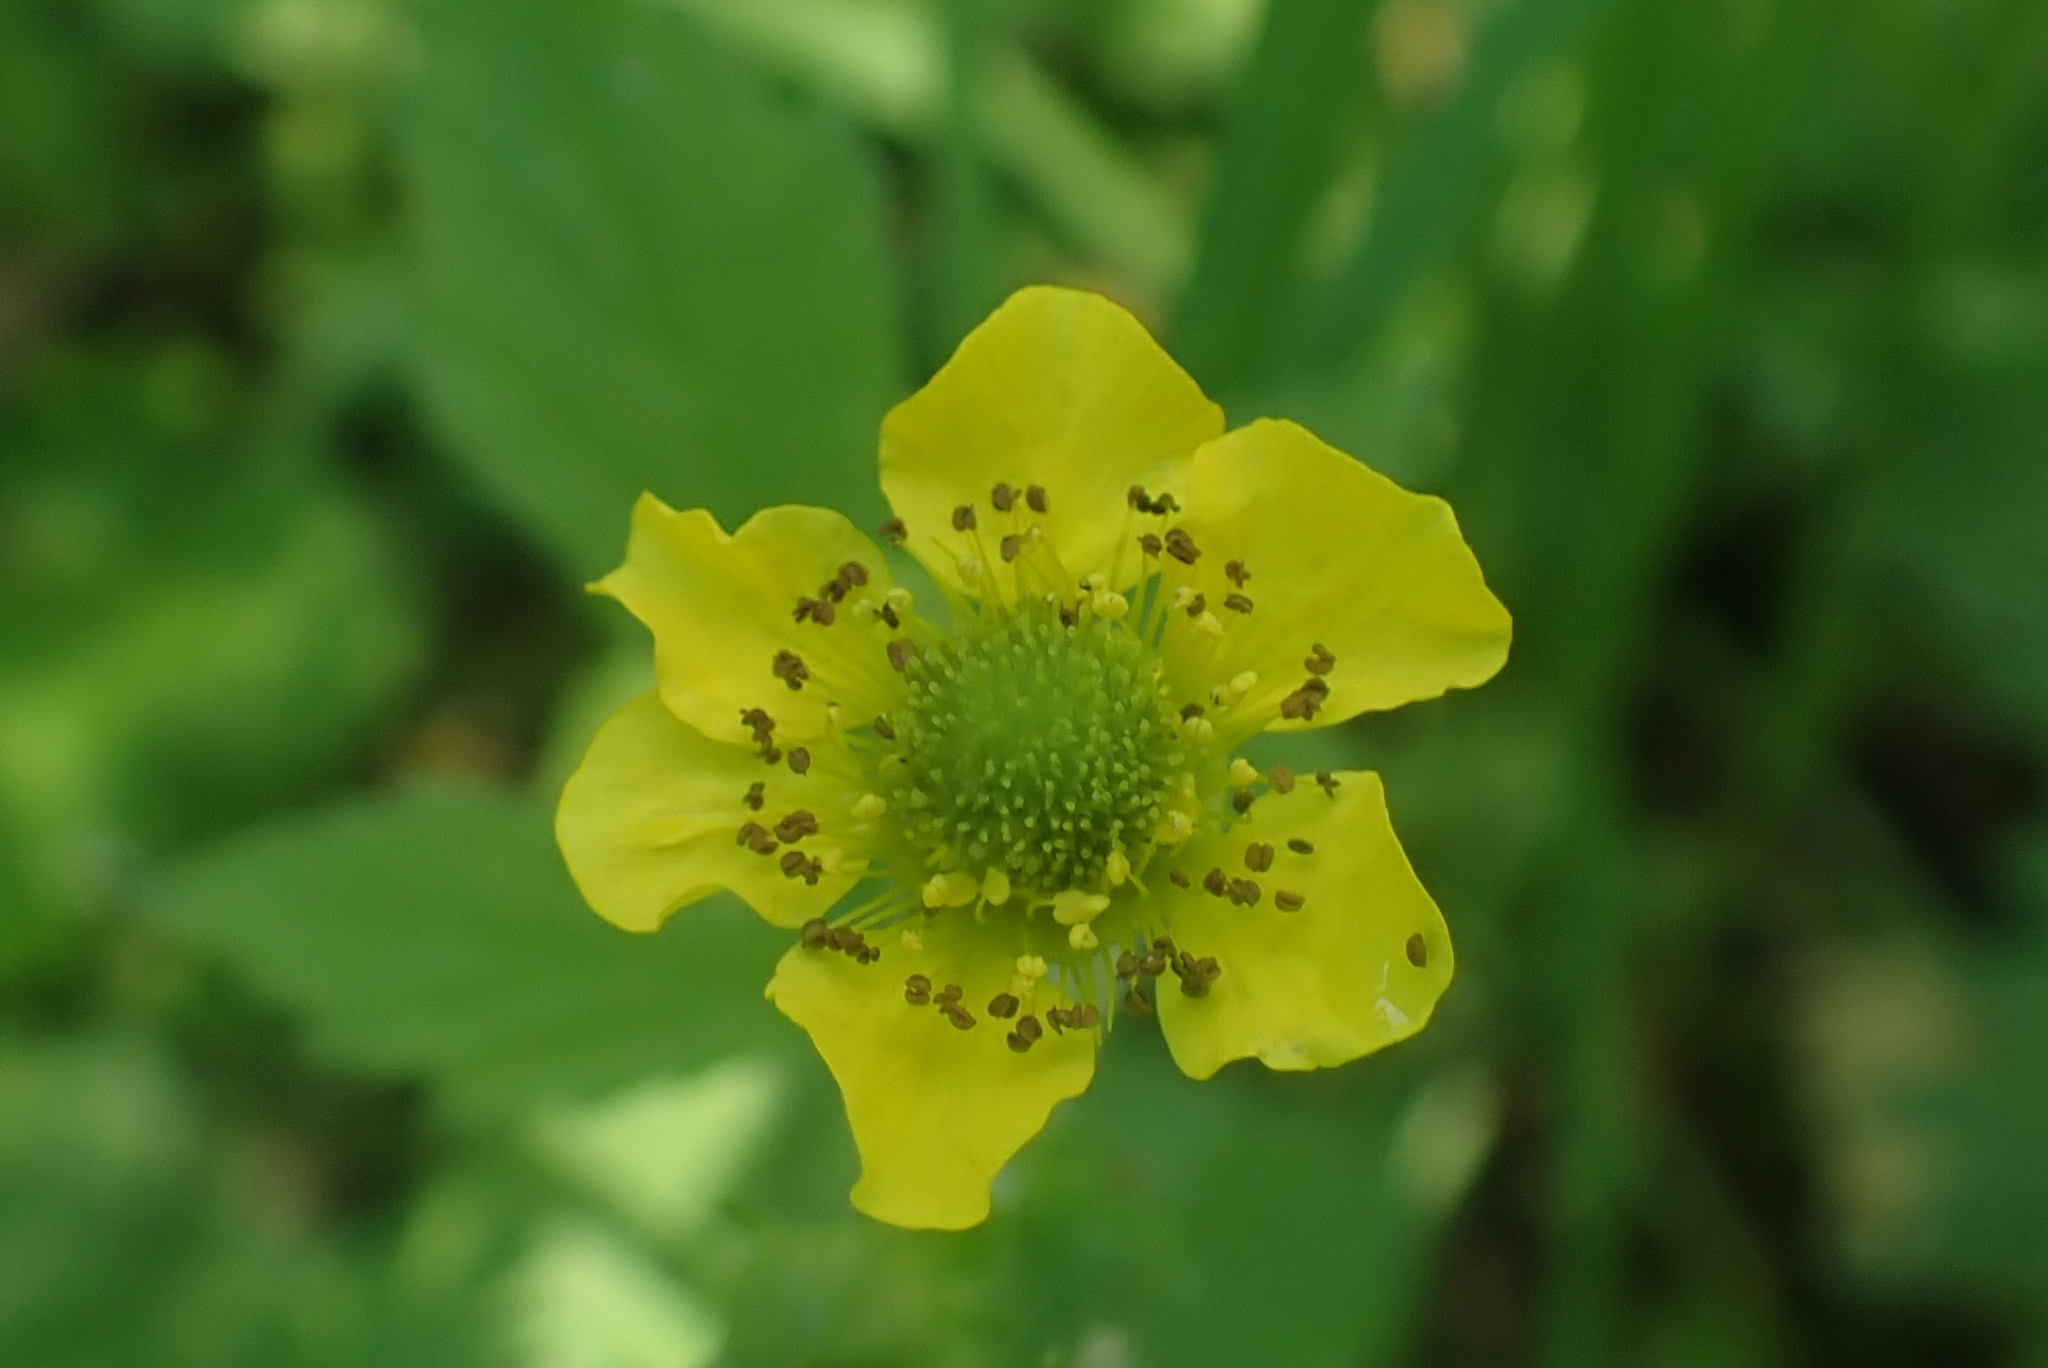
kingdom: Plantae
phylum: Tracheophyta
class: Magnoliopsida
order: Rosales
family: Rosaceae
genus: Geum
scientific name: Geum aleppicum
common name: Yellow avens
